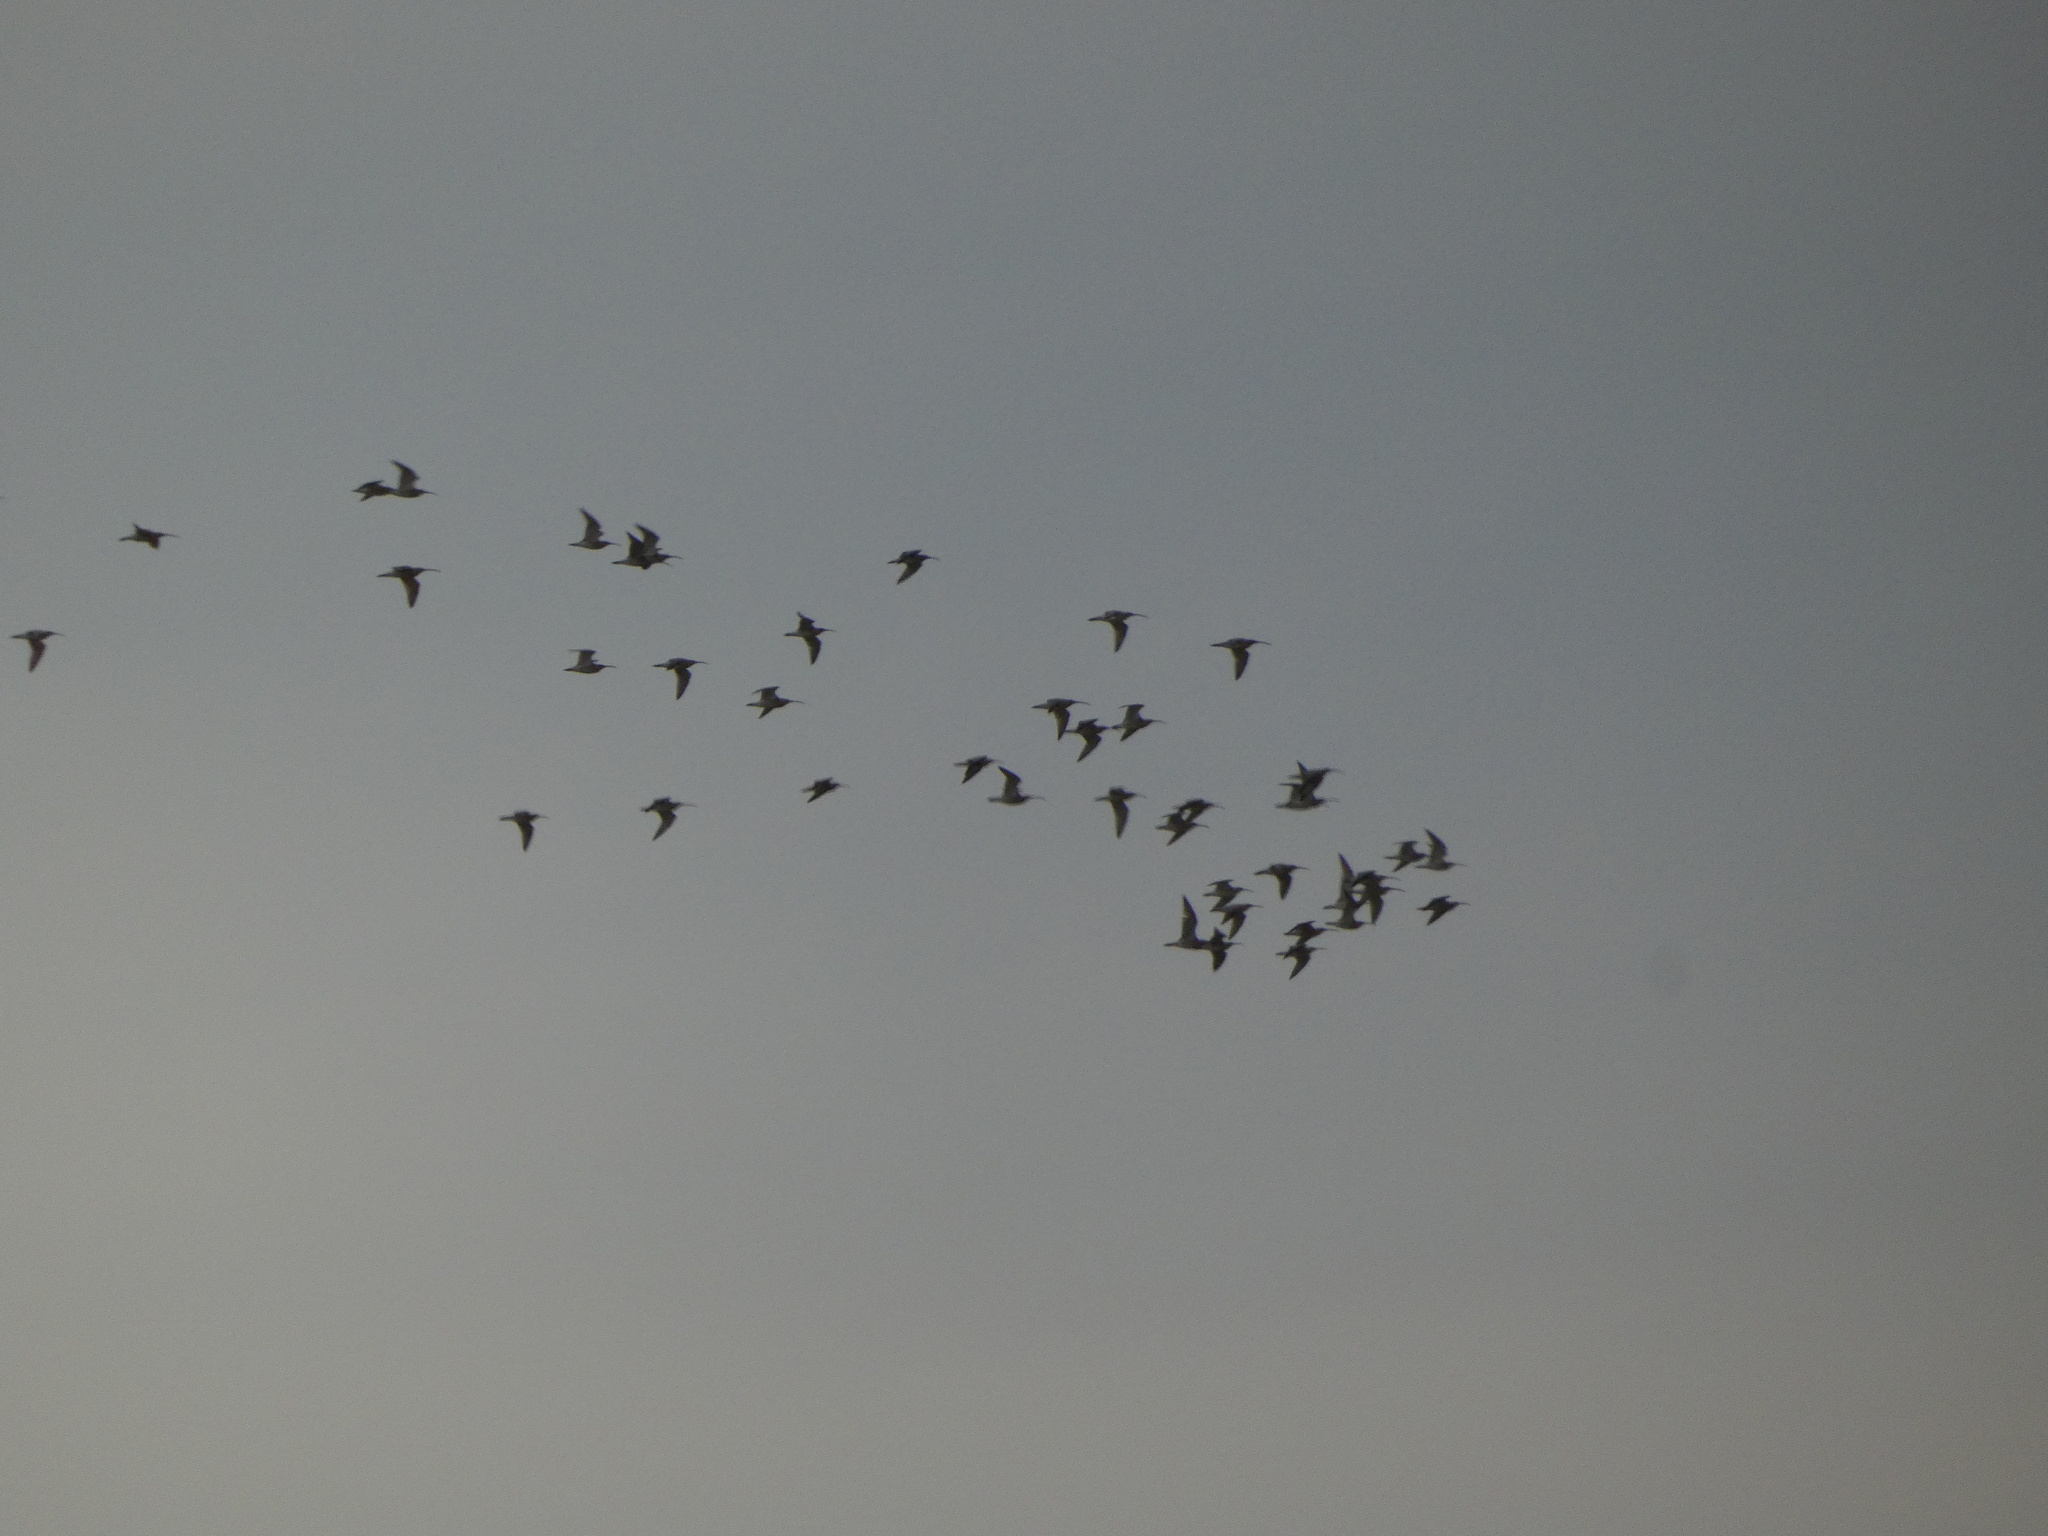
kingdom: Animalia
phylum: Chordata
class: Aves
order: Charadriiformes
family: Scolopacidae
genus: Numenius
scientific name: Numenius arquata
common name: Eurasian curlew
